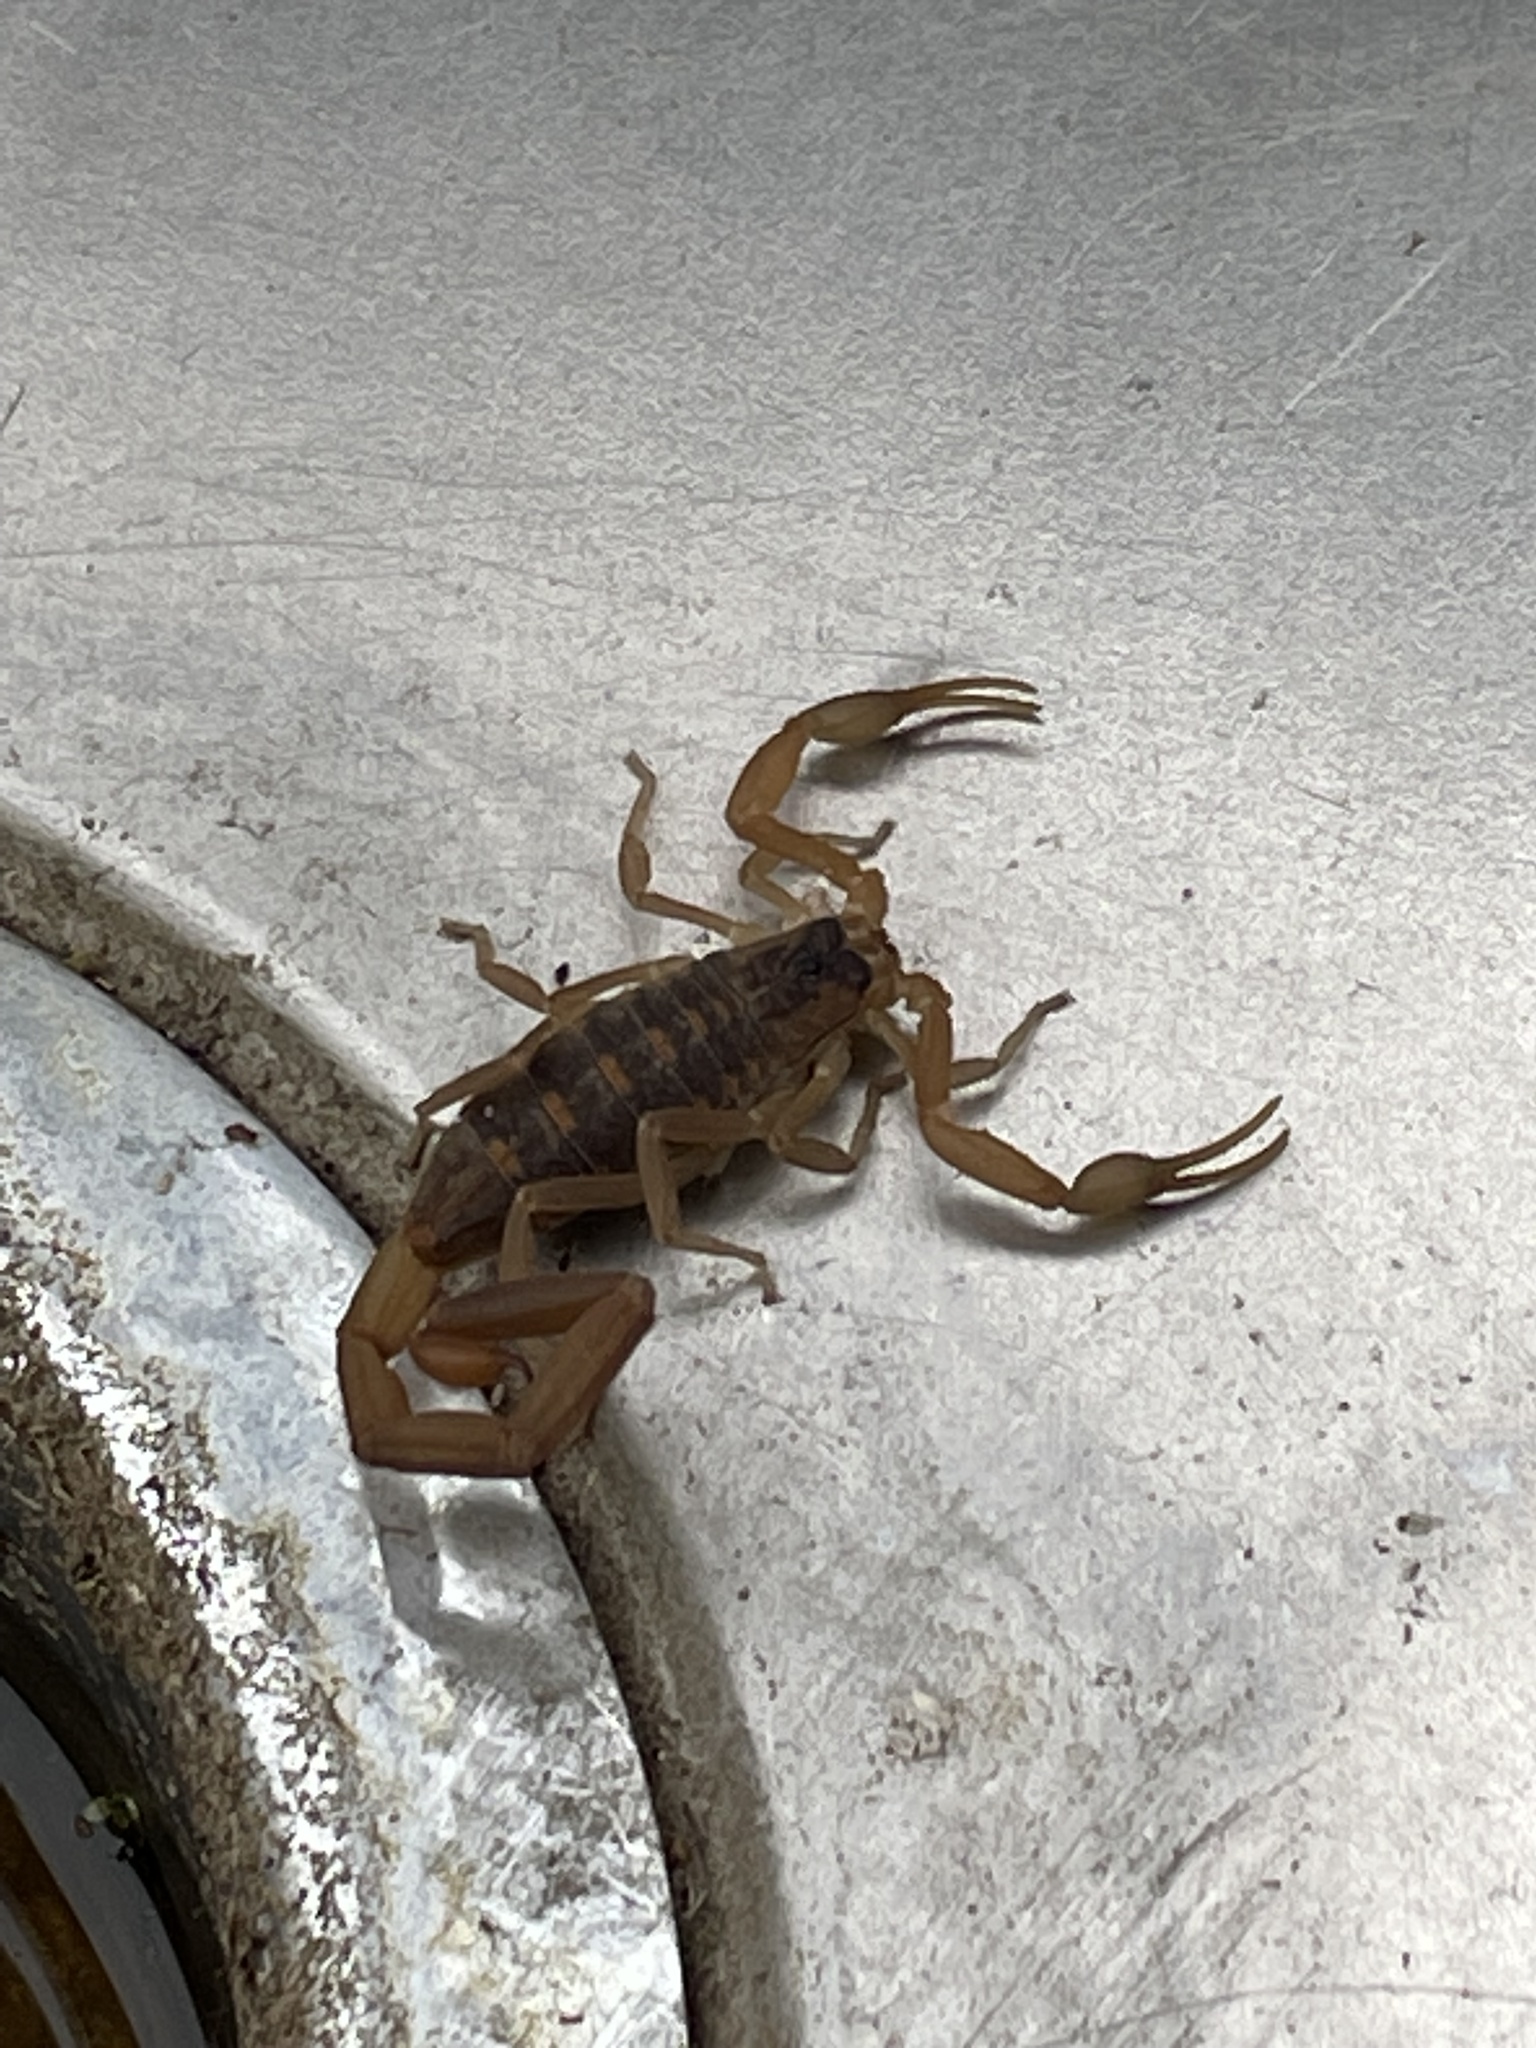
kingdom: Animalia
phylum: Arthropoda
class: Arachnida
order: Scorpiones
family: Buthidae
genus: Centruroides
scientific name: Centruroides vittatus
